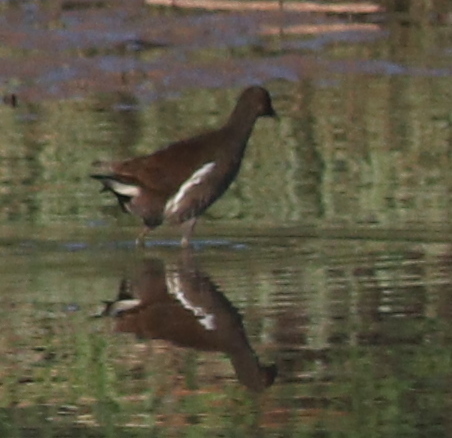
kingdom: Animalia
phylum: Chordata
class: Aves
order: Gruiformes
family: Rallidae
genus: Gallinula
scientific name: Gallinula chloropus
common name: Common moorhen
